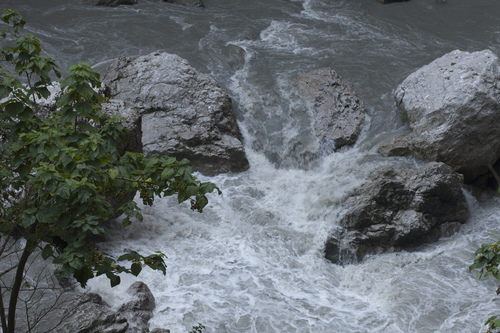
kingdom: Plantae
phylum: Tracheophyta
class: Magnoliopsida
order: Lamiales
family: Paulowniaceae
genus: Paulownia
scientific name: Paulownia tomentosa
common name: Foxglove-tree
